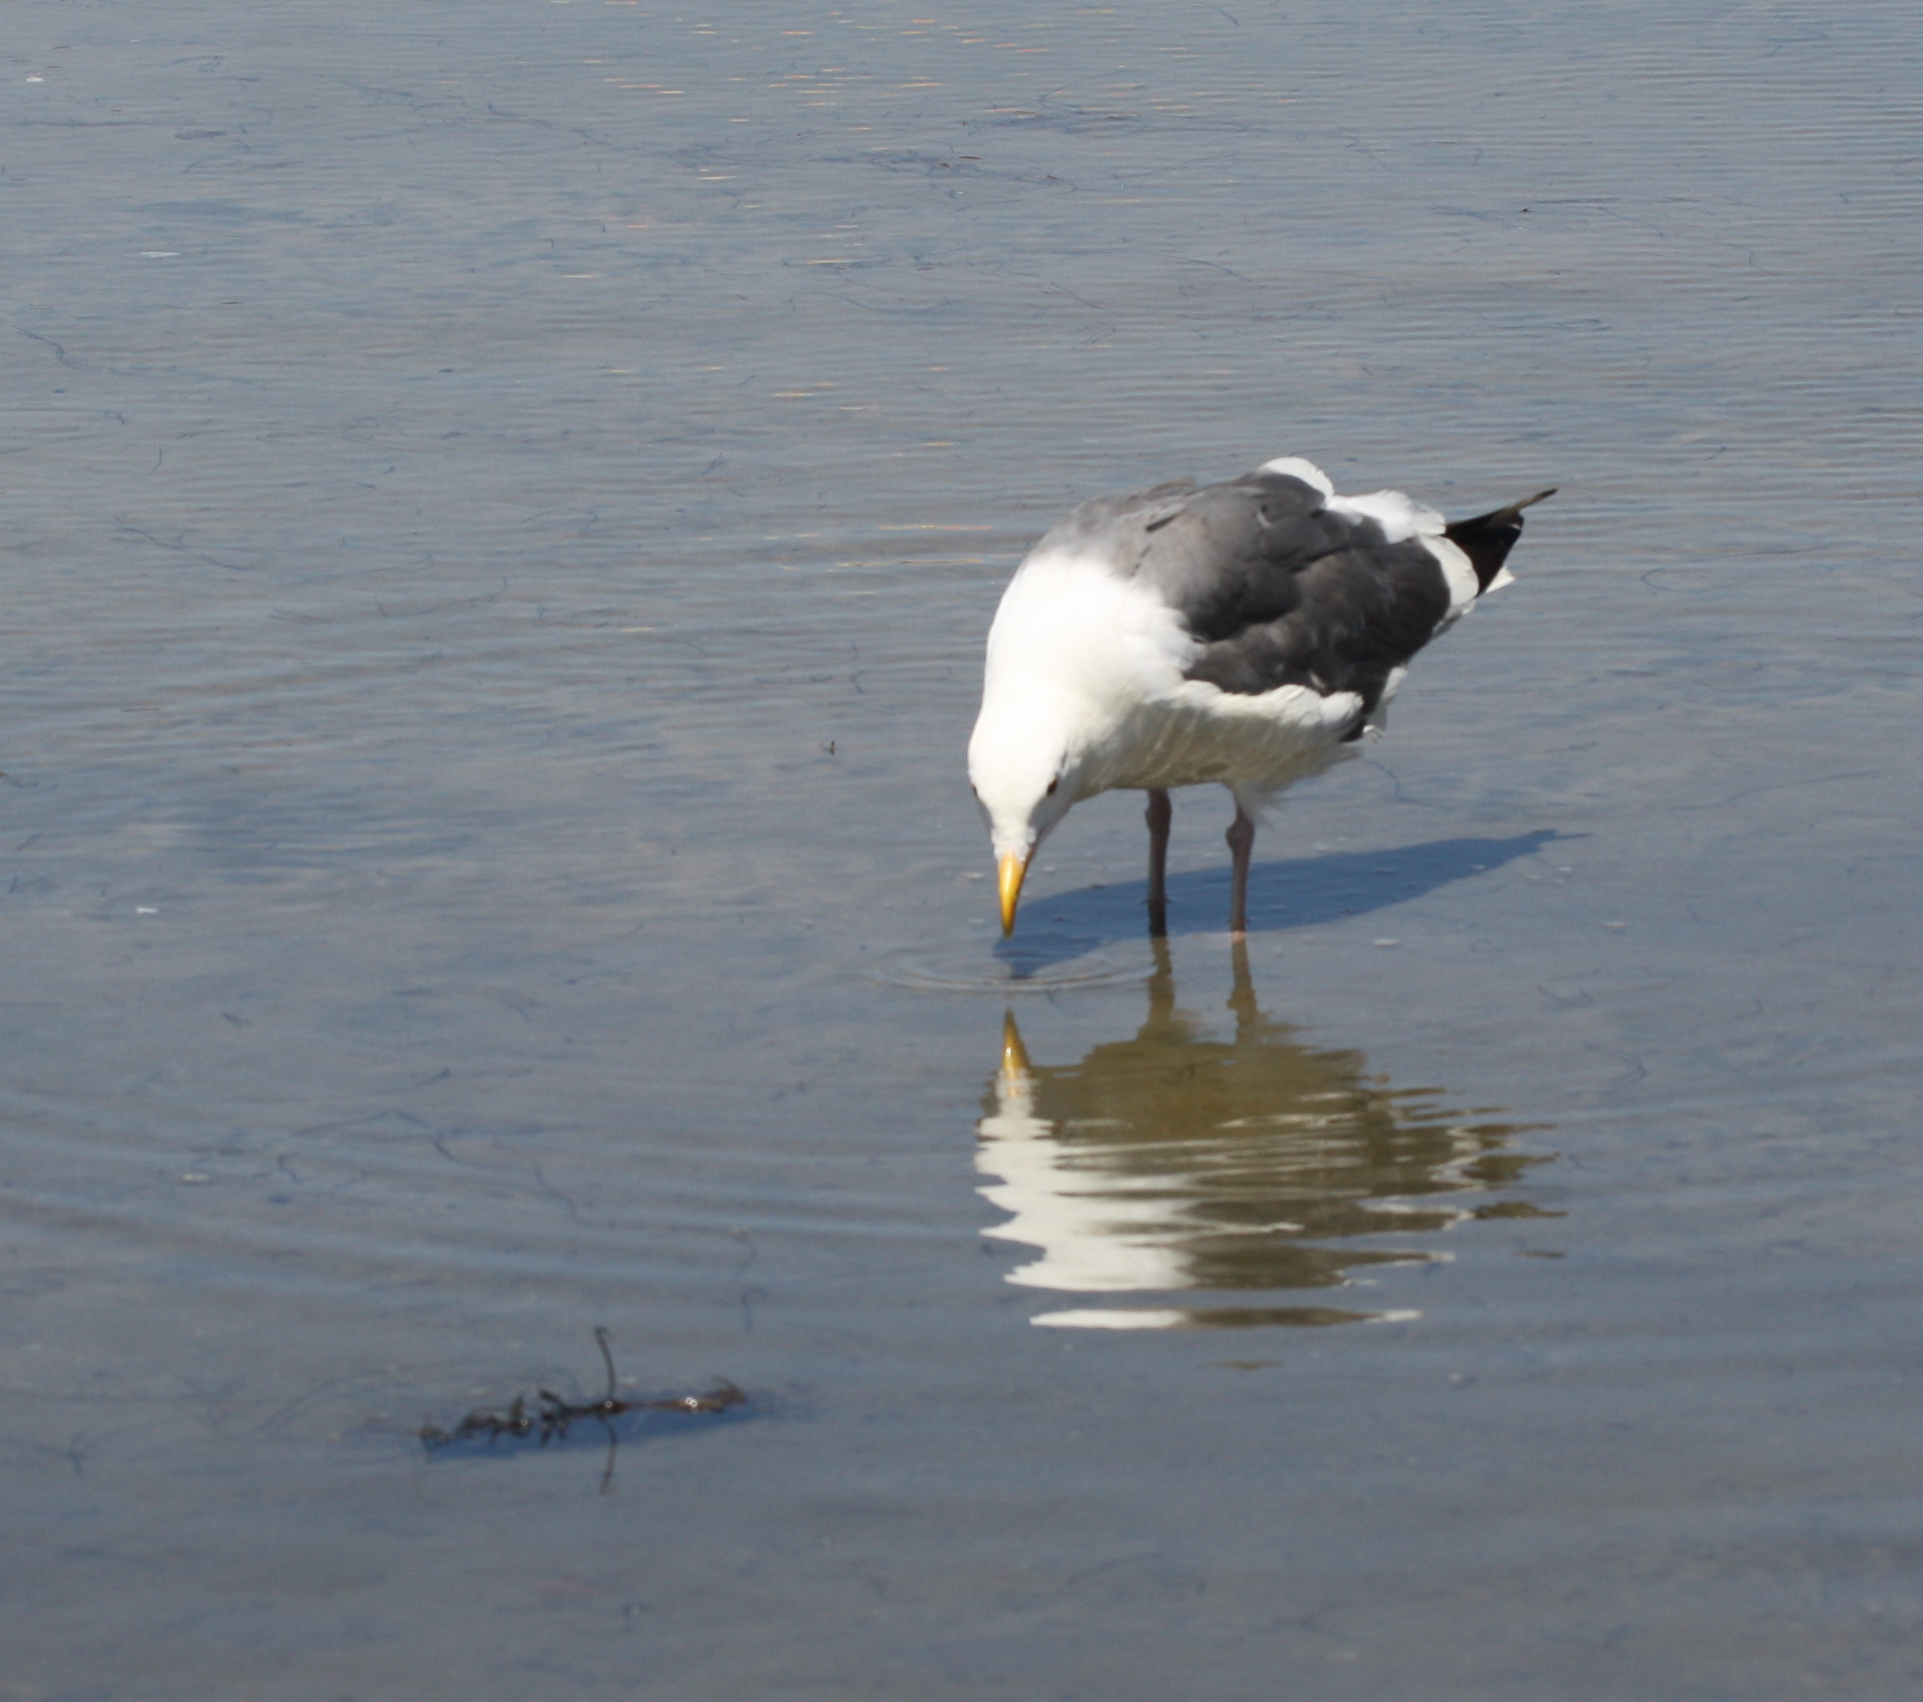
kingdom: Animalia
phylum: Chordata
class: Aves
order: Charadriiformes
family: Laridae
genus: Larus
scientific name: Larus occidentalis
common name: Western gull
